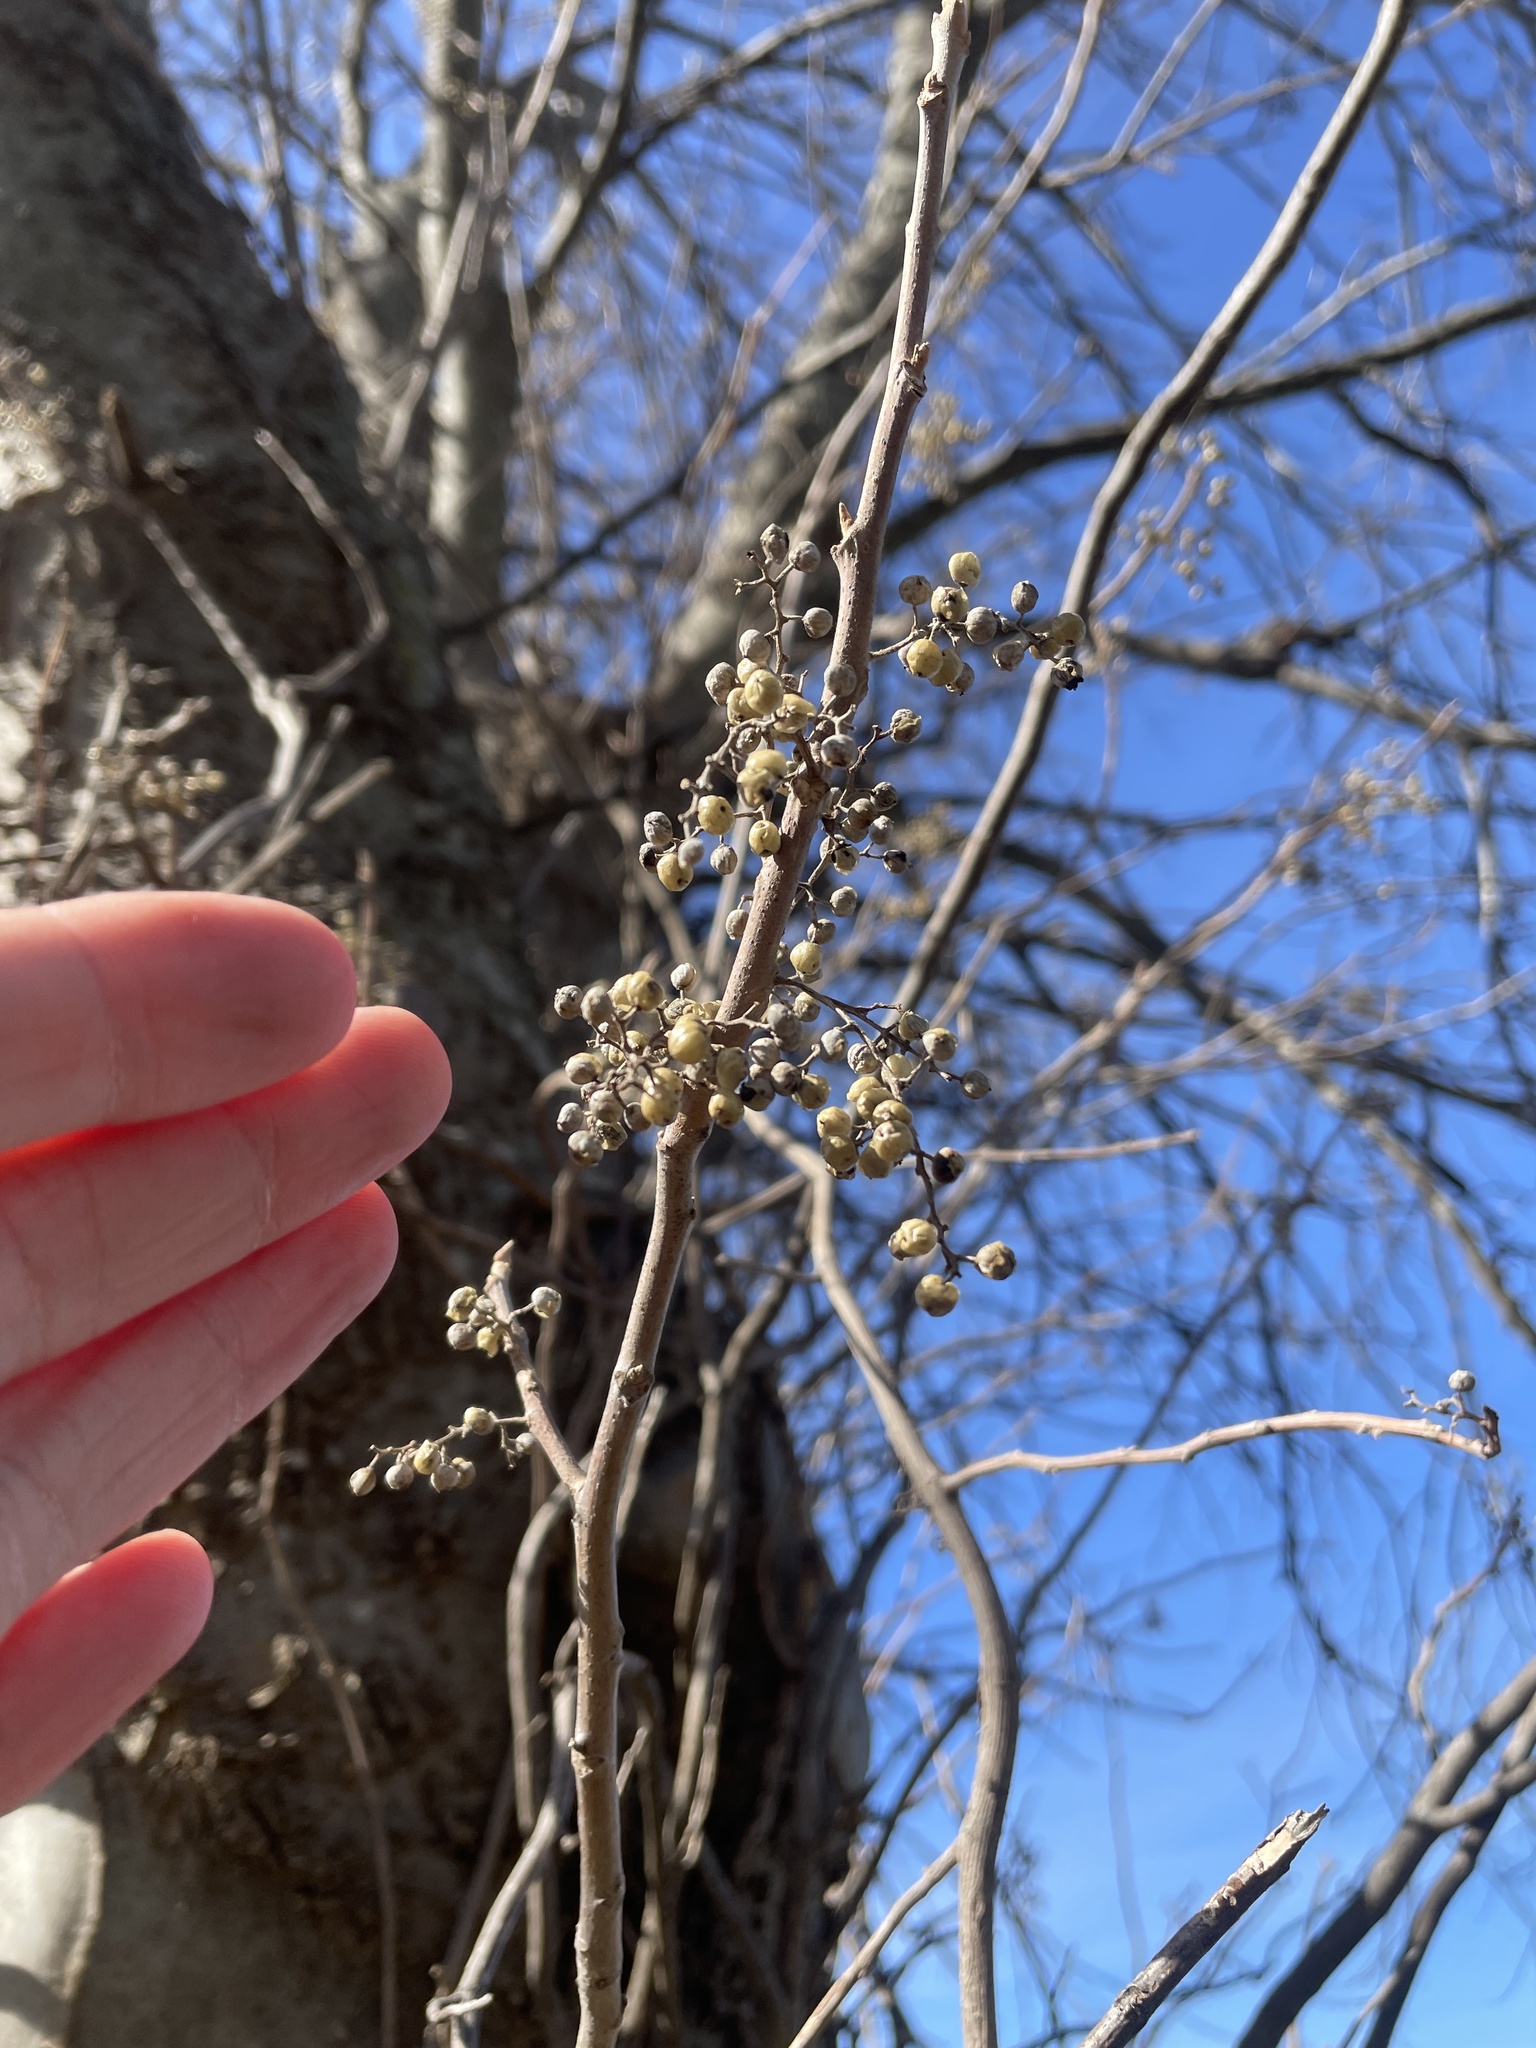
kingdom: Plantae
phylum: Tracheophyta
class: Magnoliopsida
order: Sapindales
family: Anacardiaceae
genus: Toxicodendron
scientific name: Toxicodendron radicans
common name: Poison ivy
